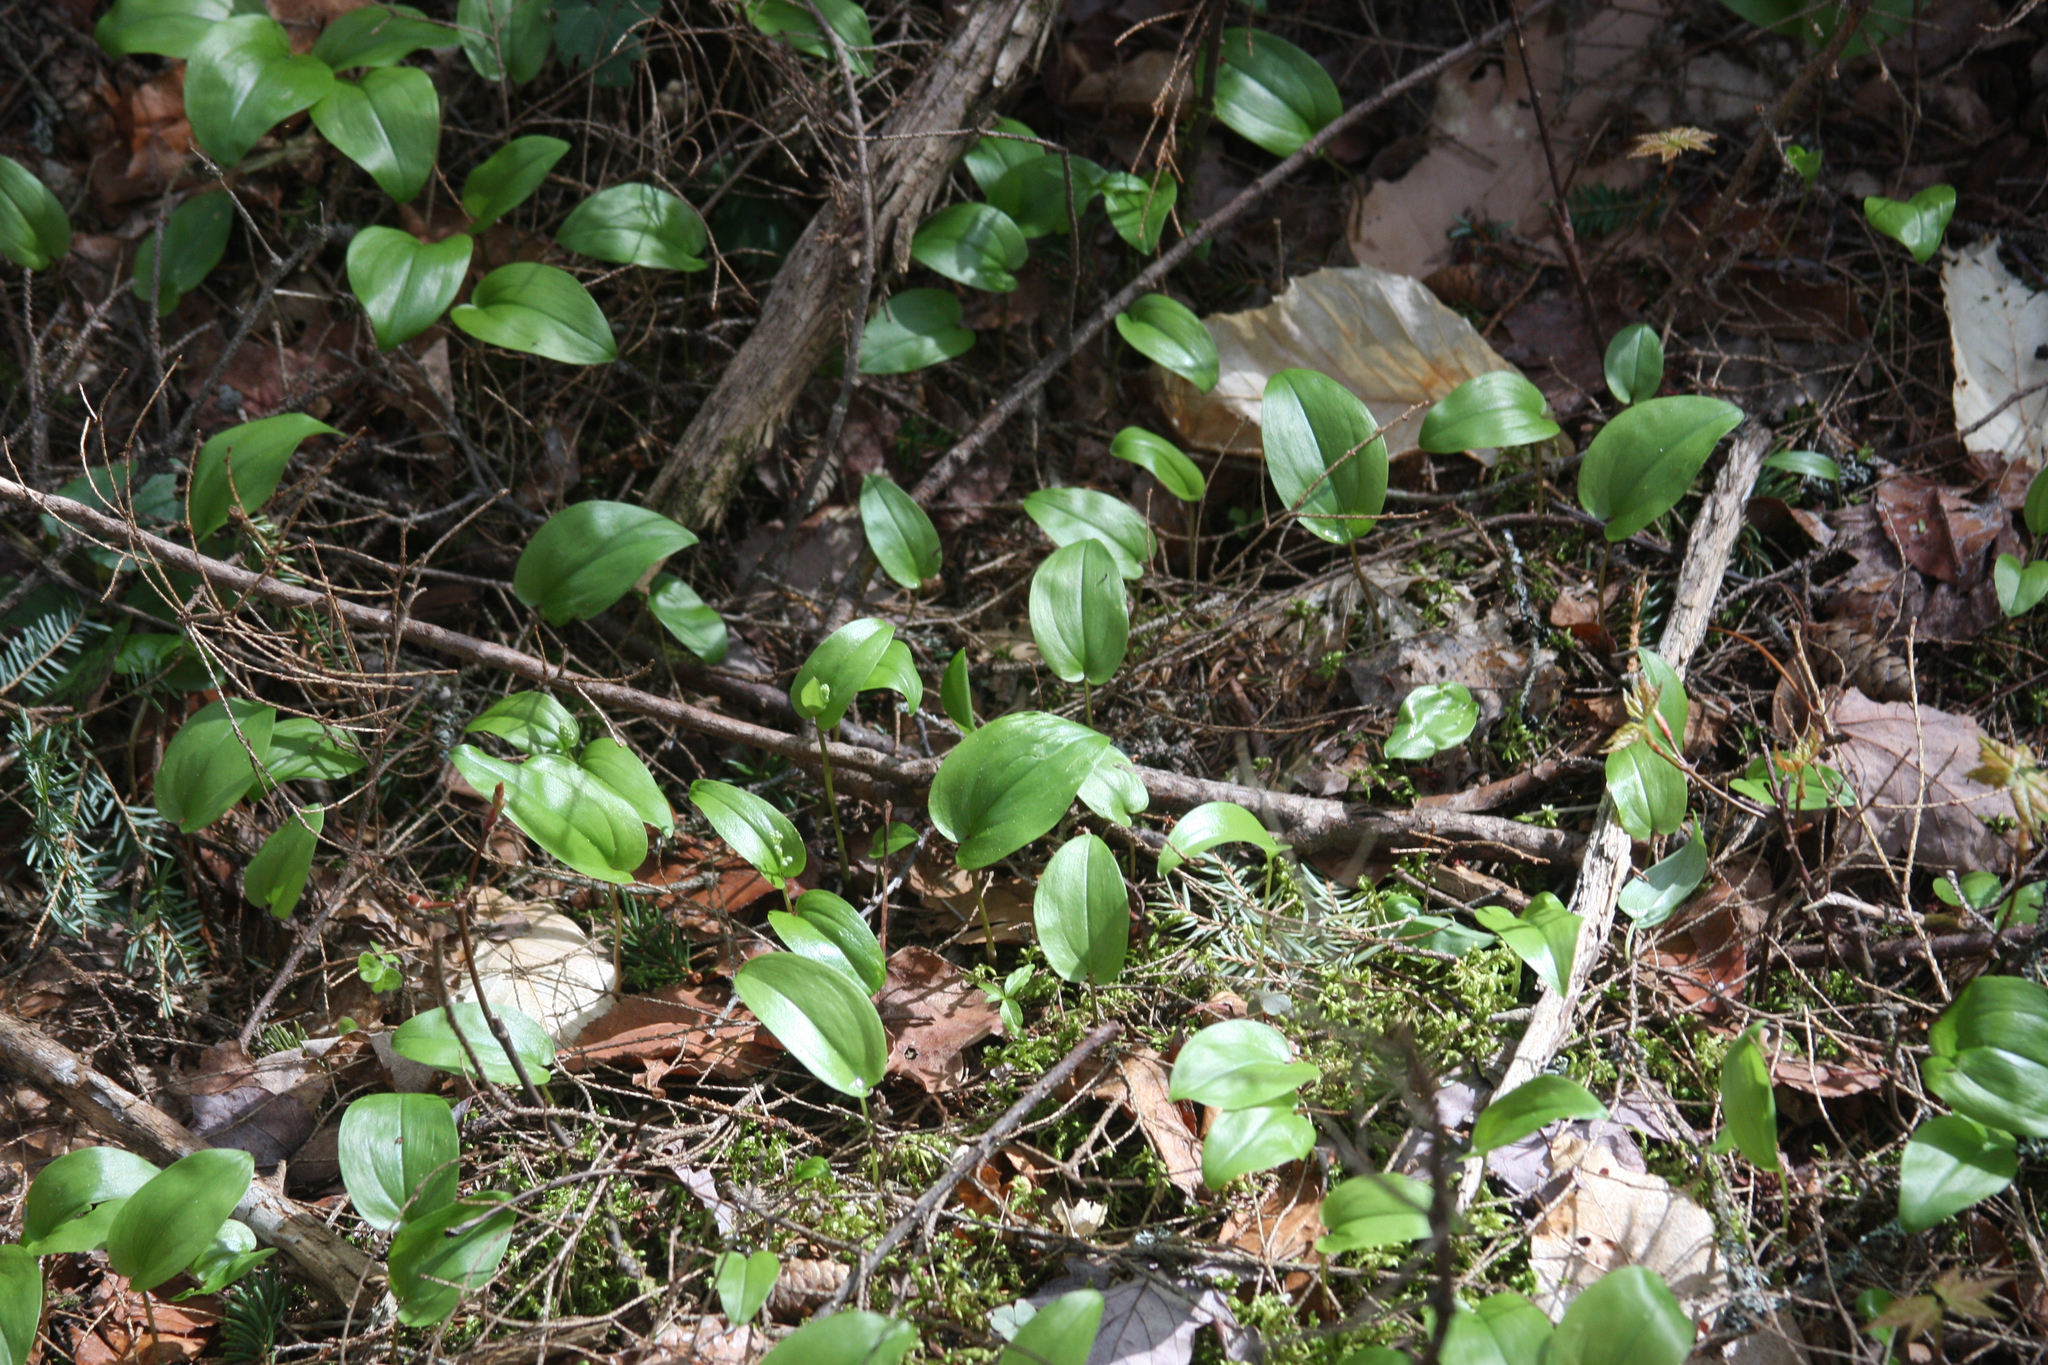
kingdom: Plantae
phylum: Tracheophyta
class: Liliopsida
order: Asparagales
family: Asparagaceae
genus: Maianthemum
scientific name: Maianthemum canadense
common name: False lily-of-the-valley
